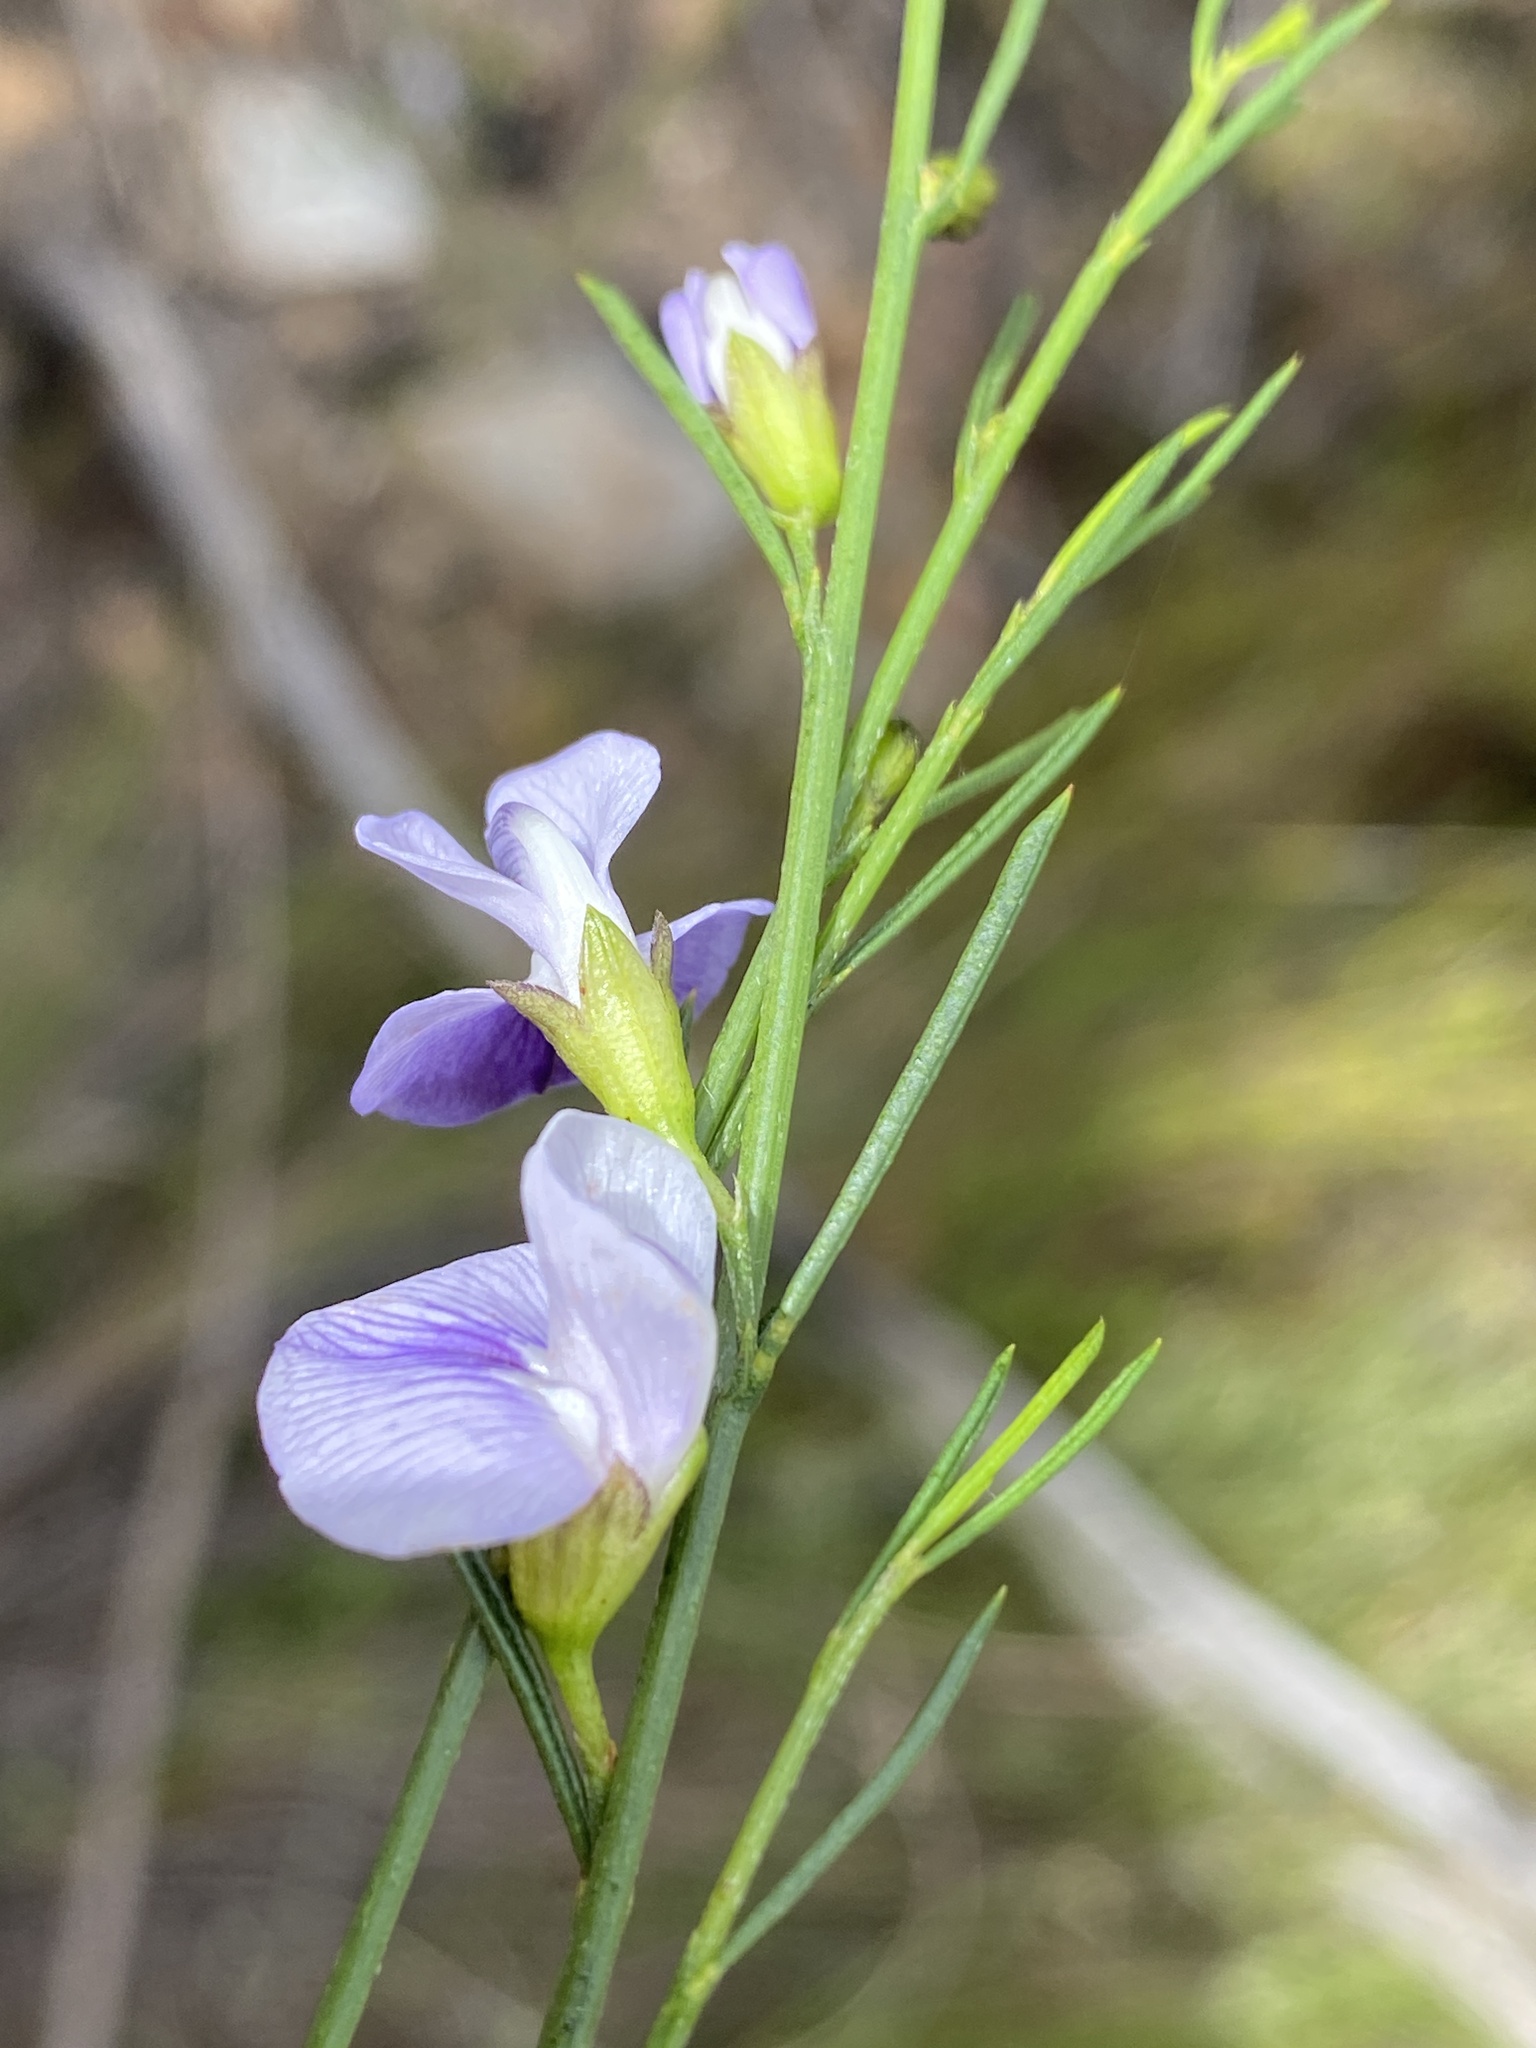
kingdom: Plantae
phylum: Tracheophyta
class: Magnoliopsida
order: Fabales
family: Fabaceae
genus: Psoralea
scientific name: Psoralea sordida
